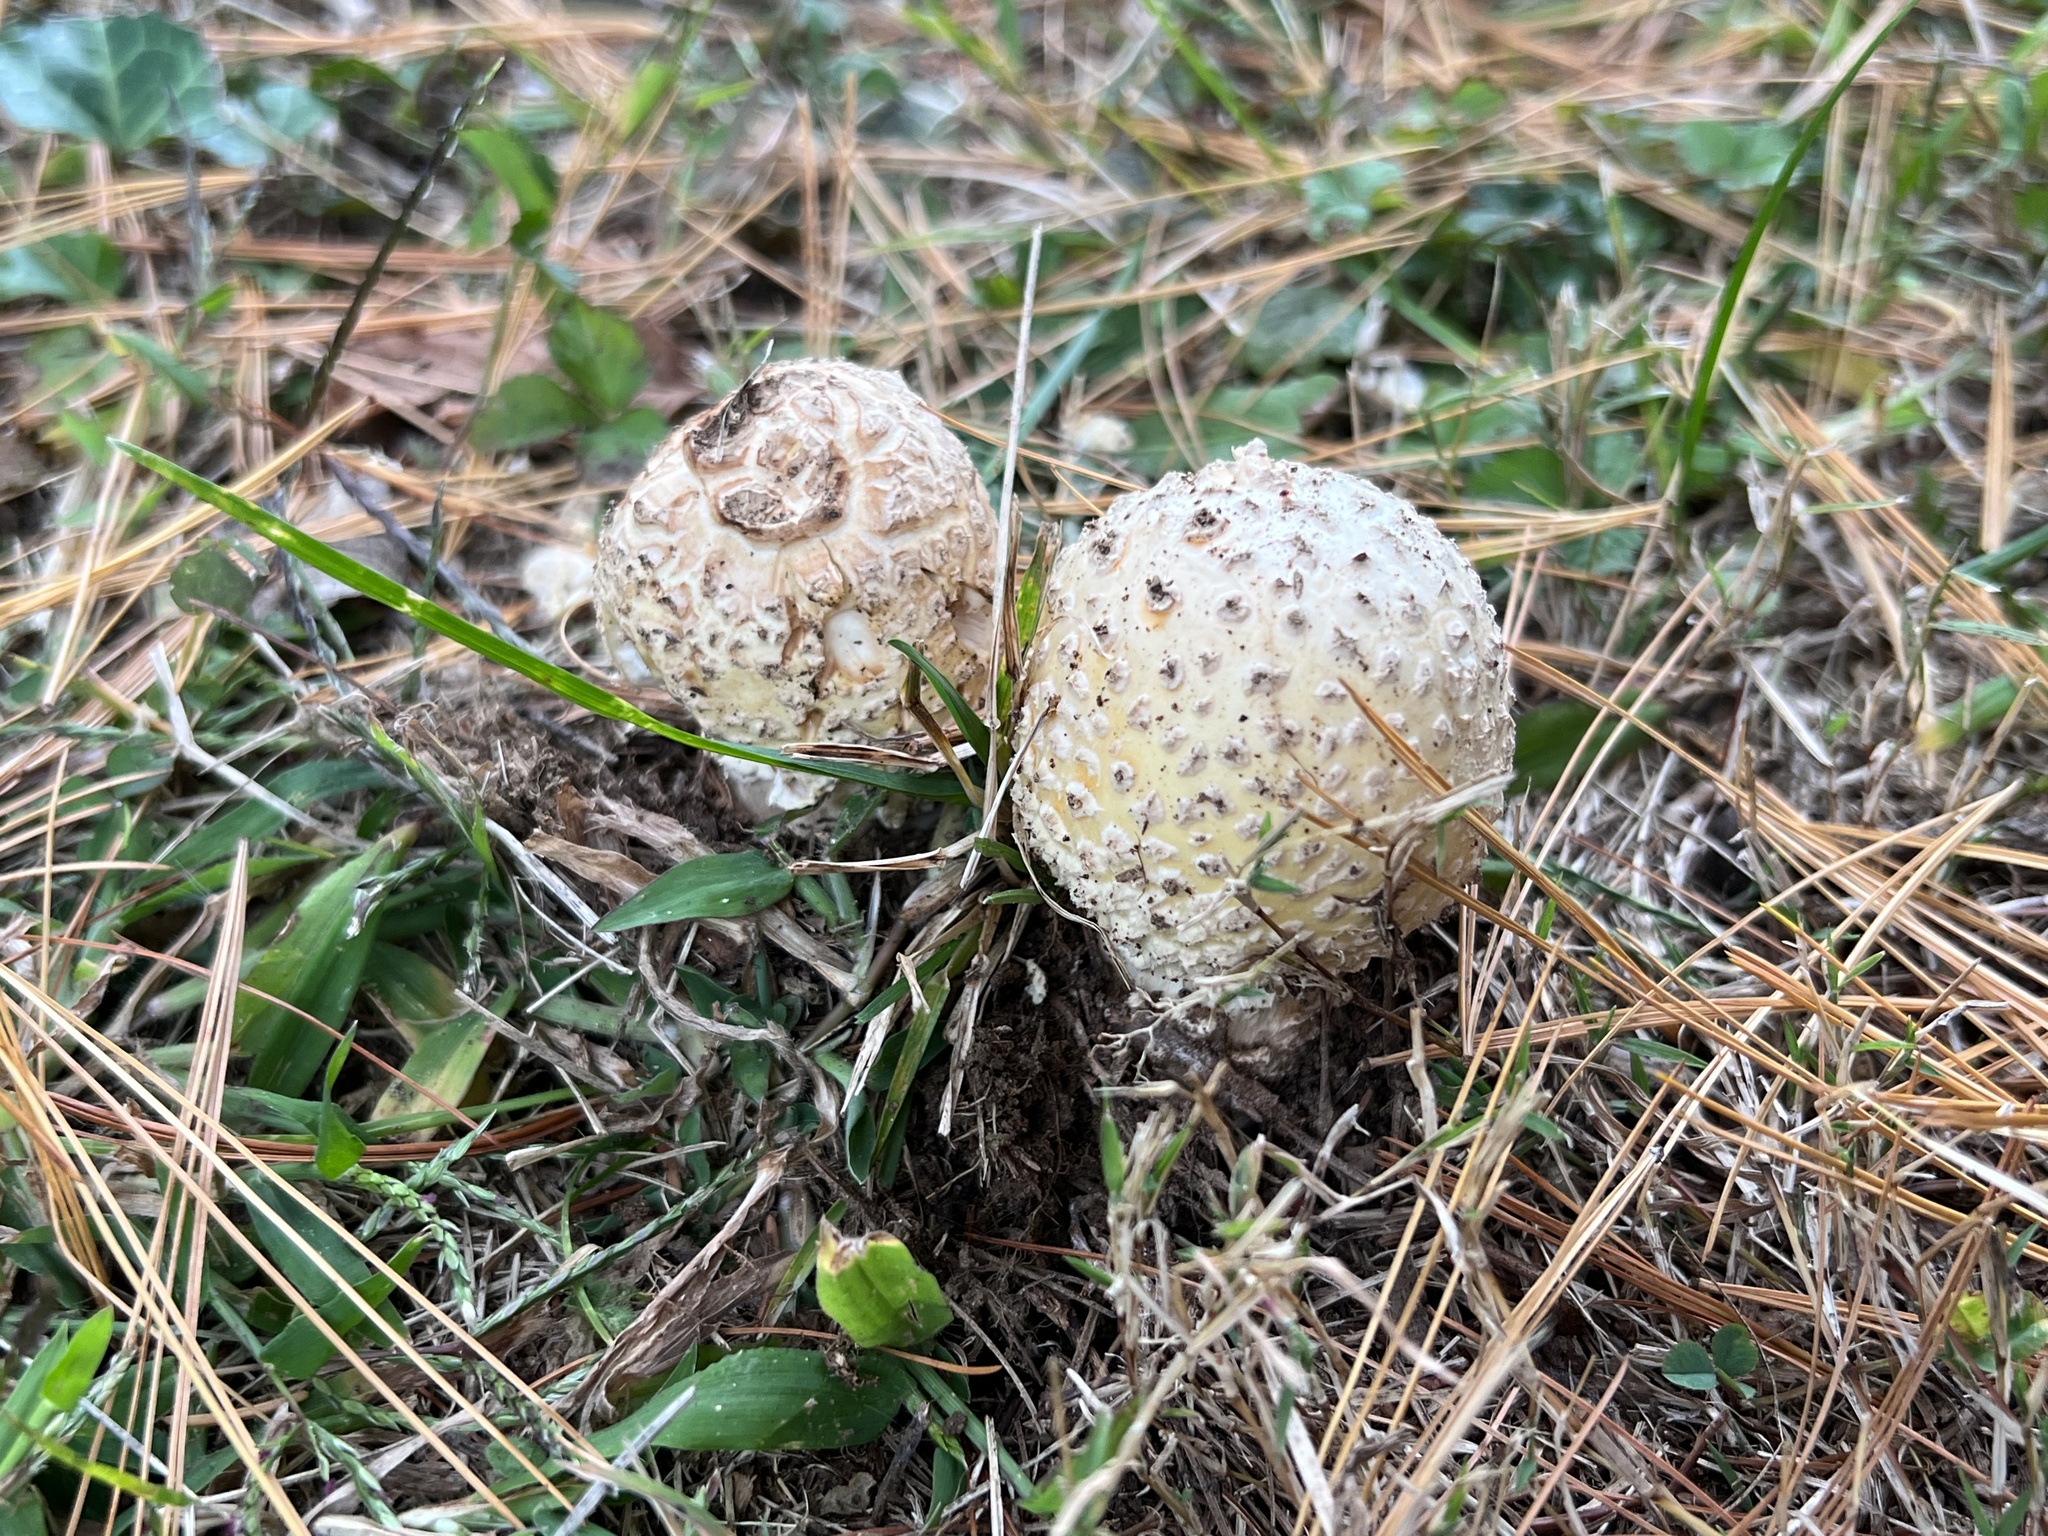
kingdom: Fungi
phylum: Basidiomycota
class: Agaricomycetes
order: Agaricales
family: Amanitaceae
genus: Amanita
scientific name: Amanita muscaria
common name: Fly agaric
